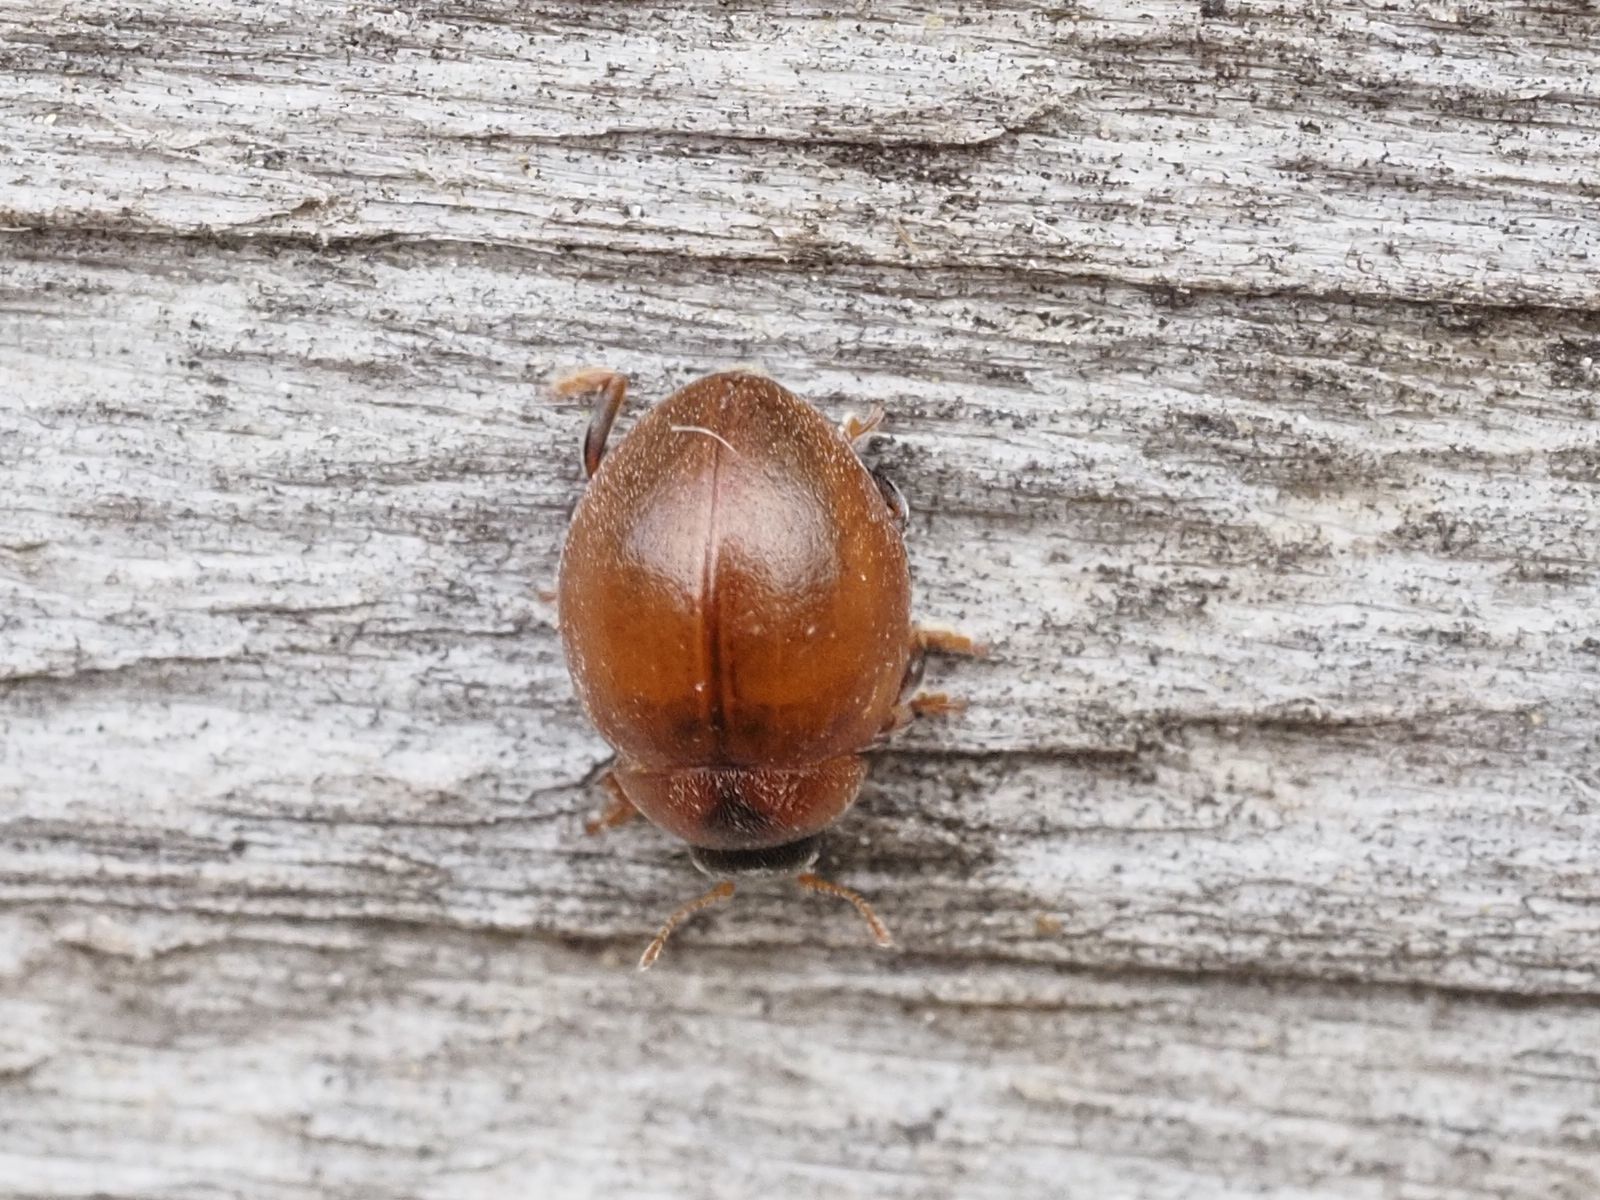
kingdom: Animalia
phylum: Arthropoda
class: Insecta
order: Coleoptera
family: Coccinellidae
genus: Cynegetis
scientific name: Cynegetis impunctata
